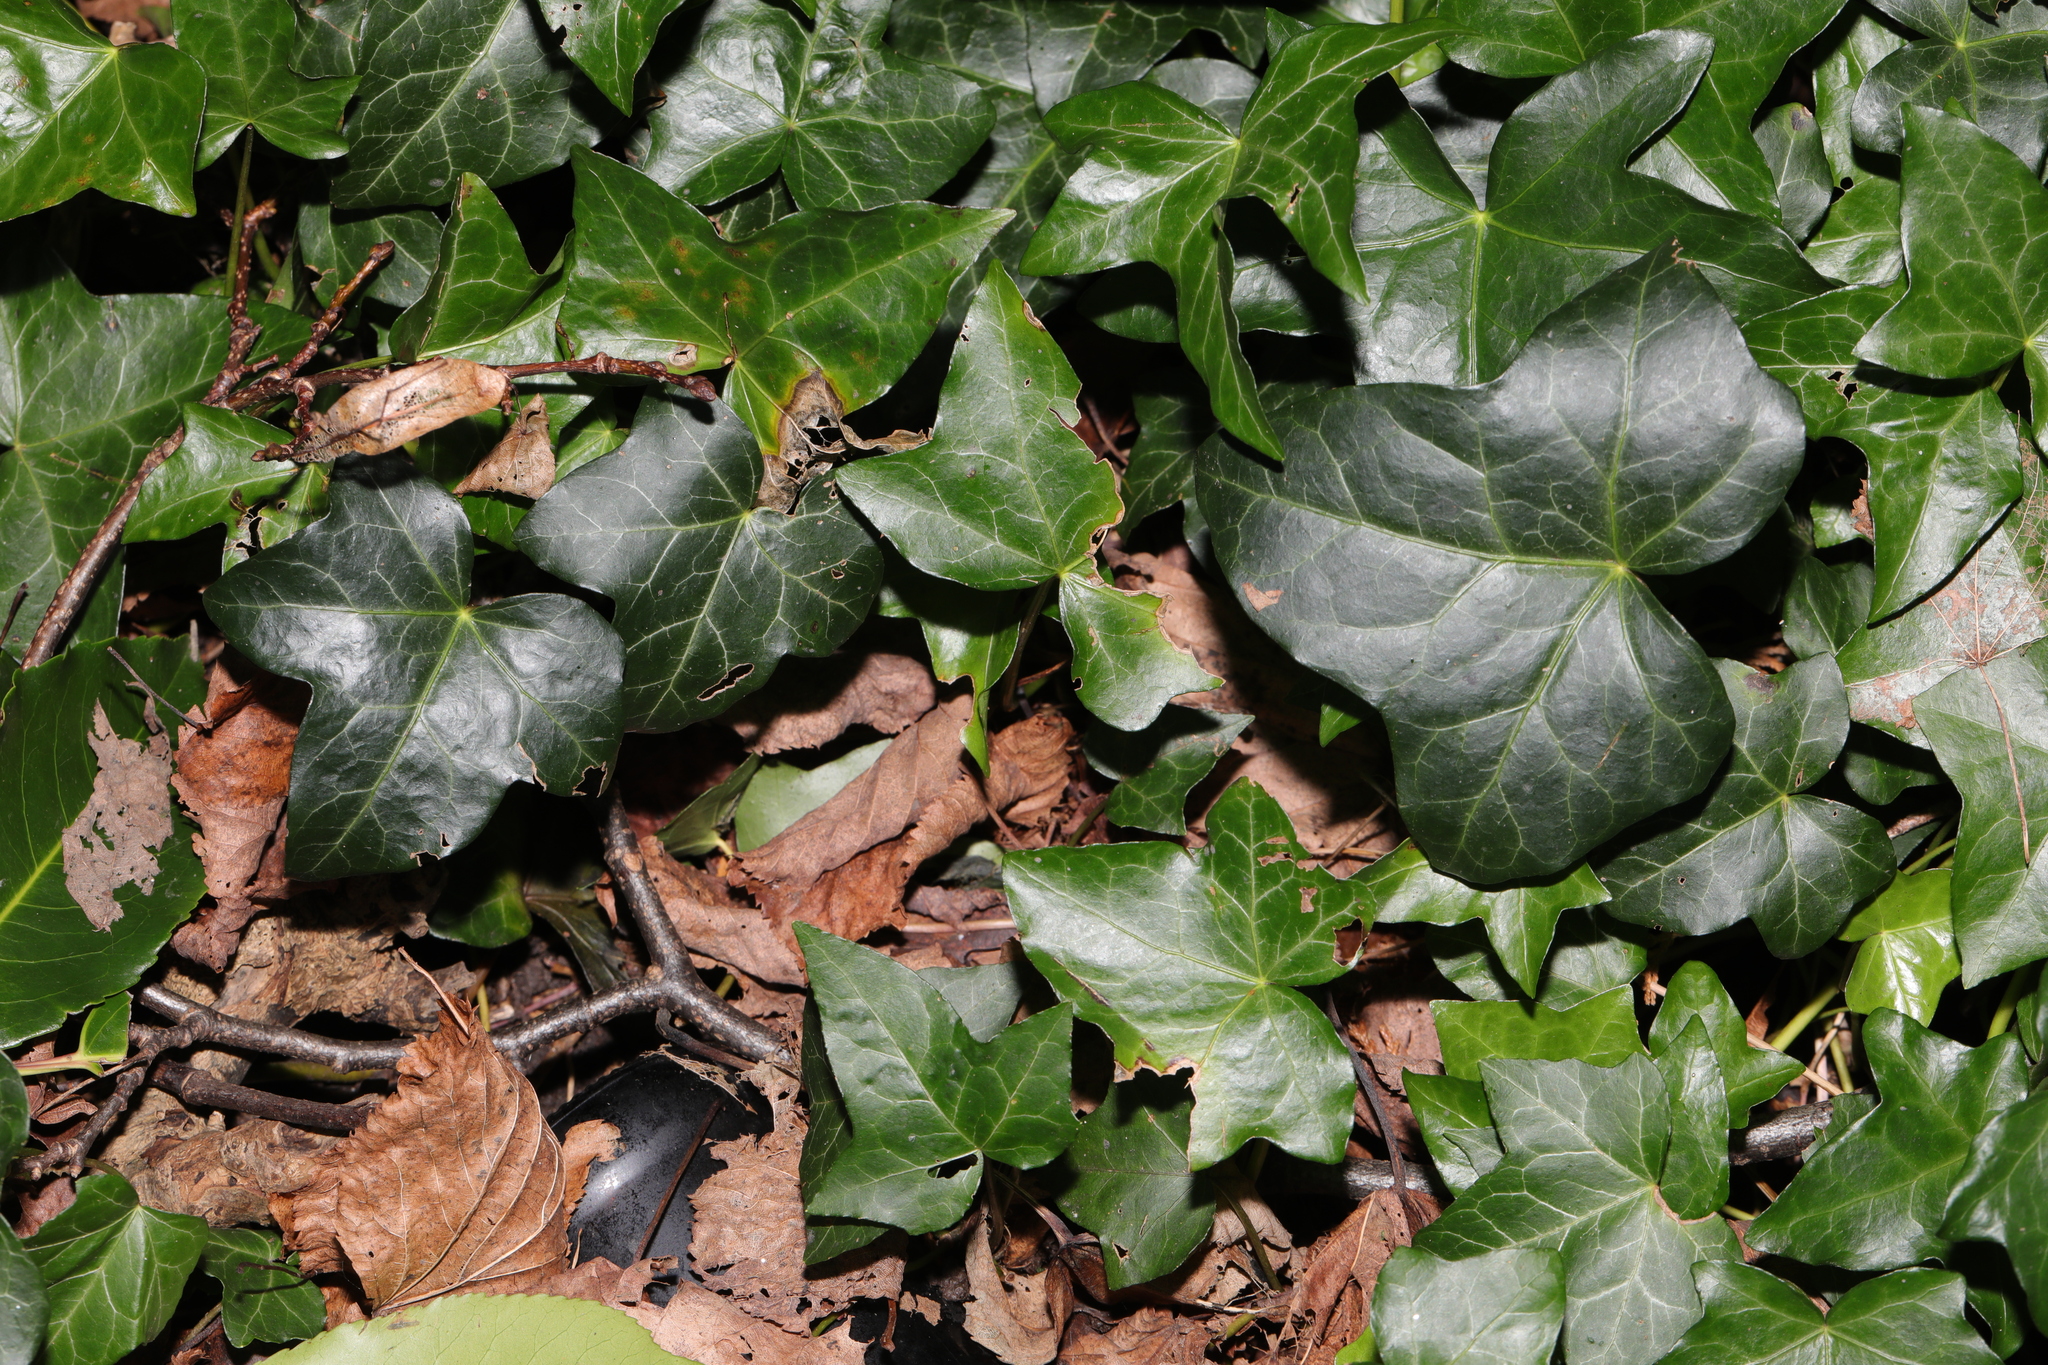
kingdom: Plantae
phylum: Tracheophyta
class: Magnoliopsida
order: Apiales
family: Araliaceae
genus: Hedera
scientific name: Hedera helix
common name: Ivy
